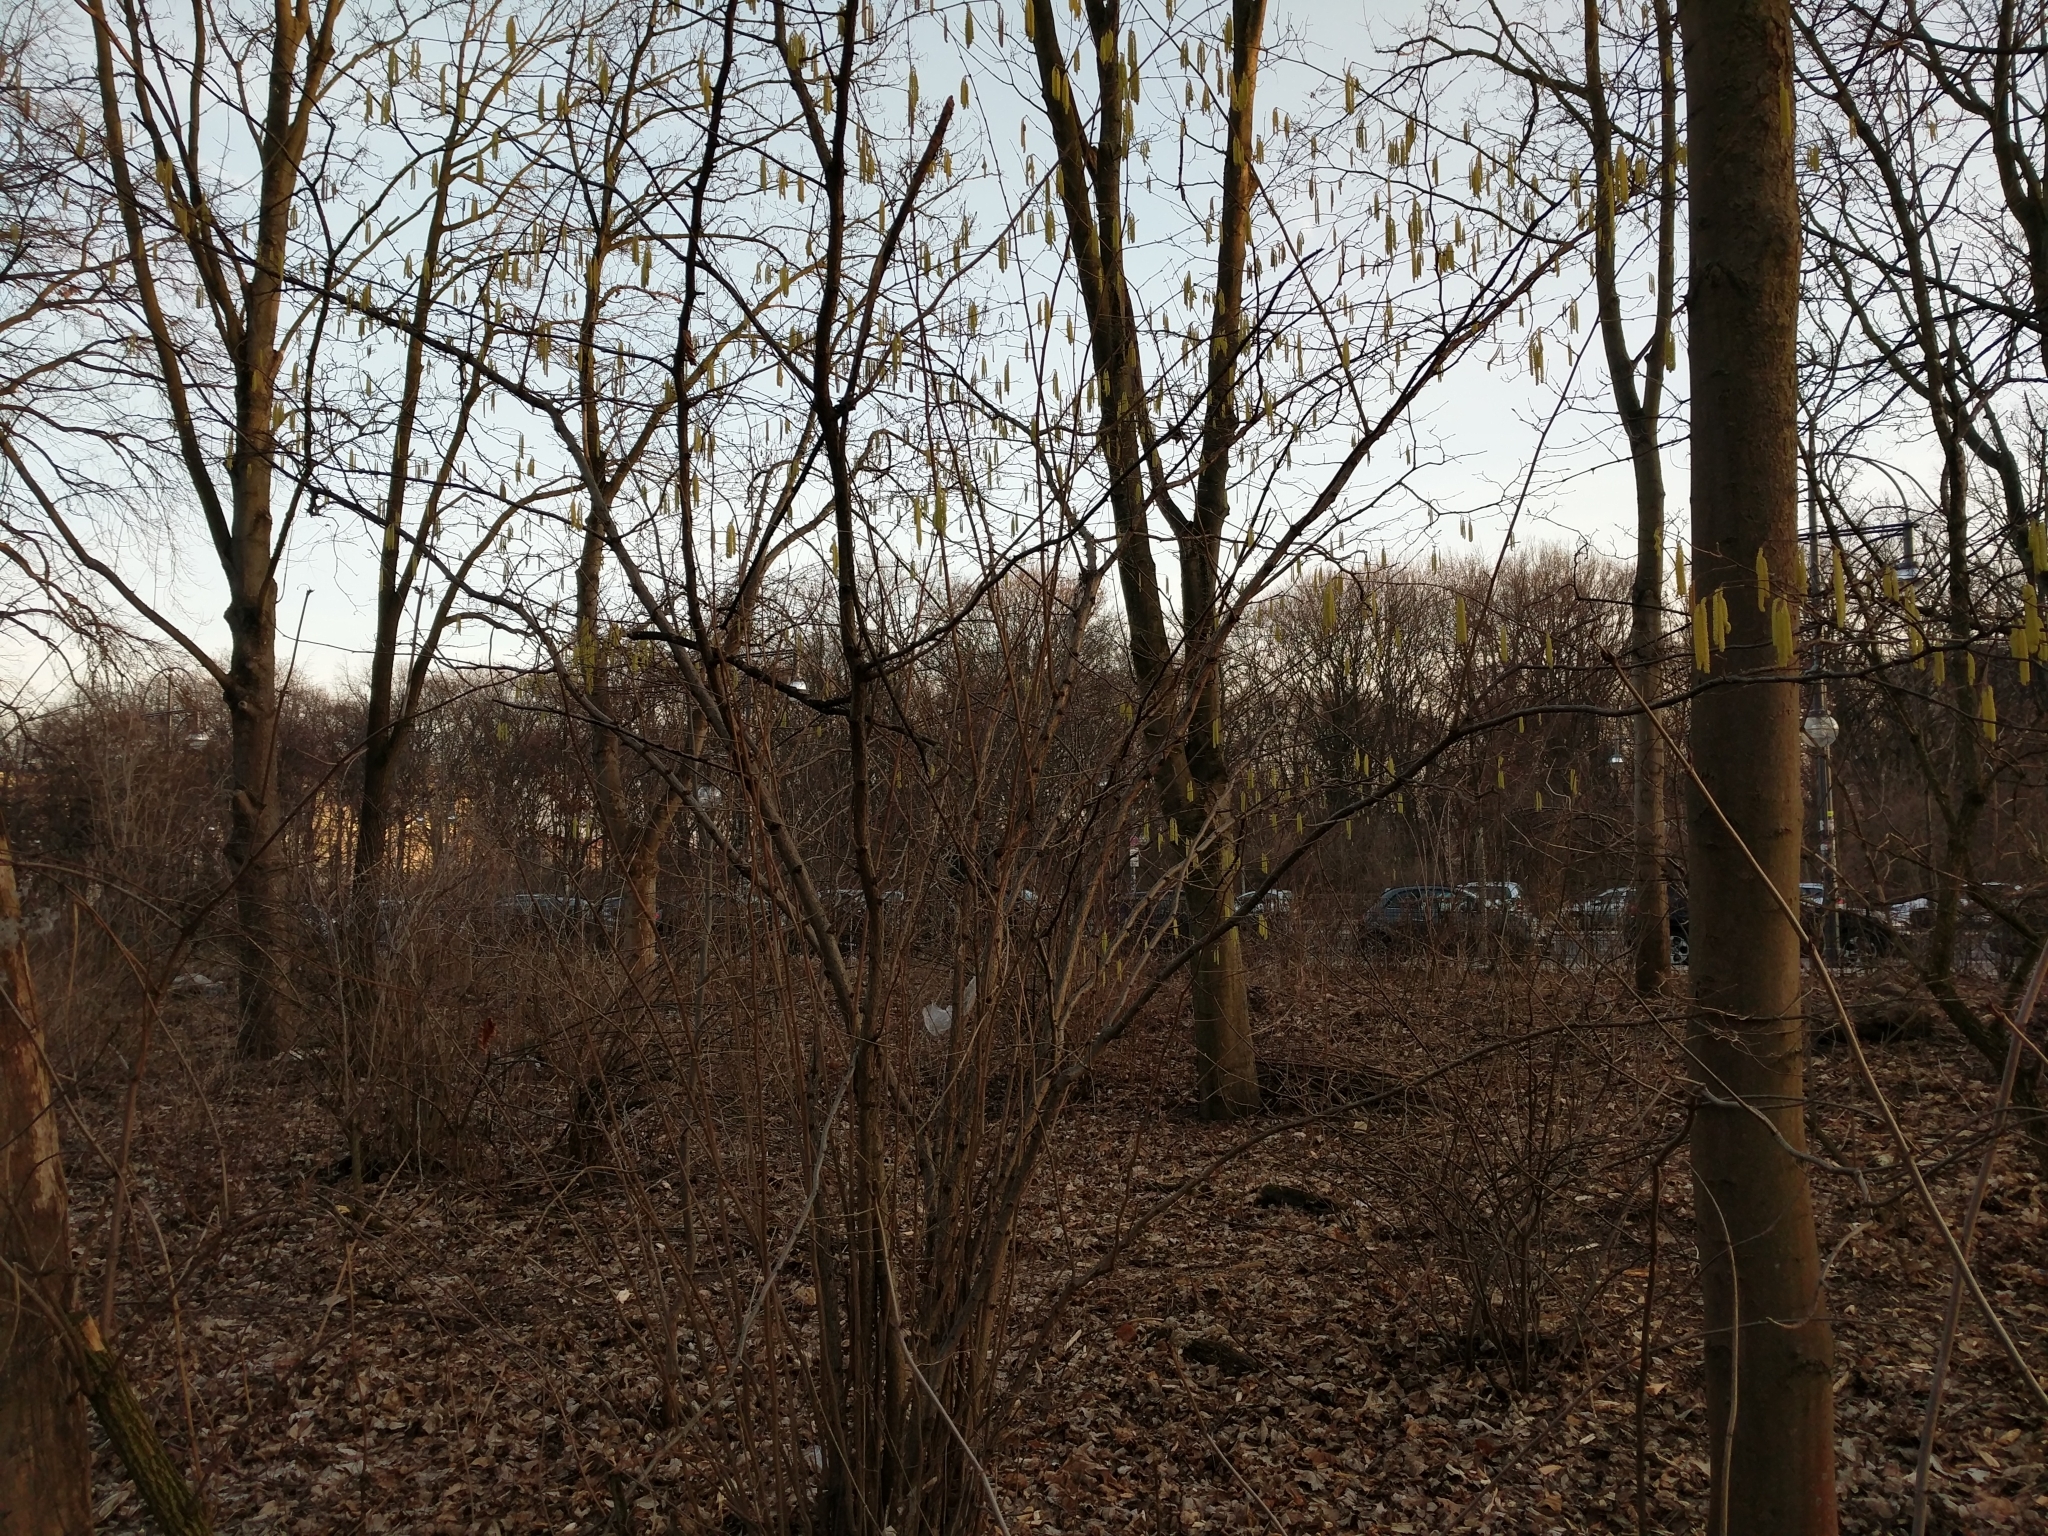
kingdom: Plantae
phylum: Tracheophyta
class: Magnoliopsida
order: Fagales
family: Betulaceae
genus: Corylus
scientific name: Corylus avellana
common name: European hazel
